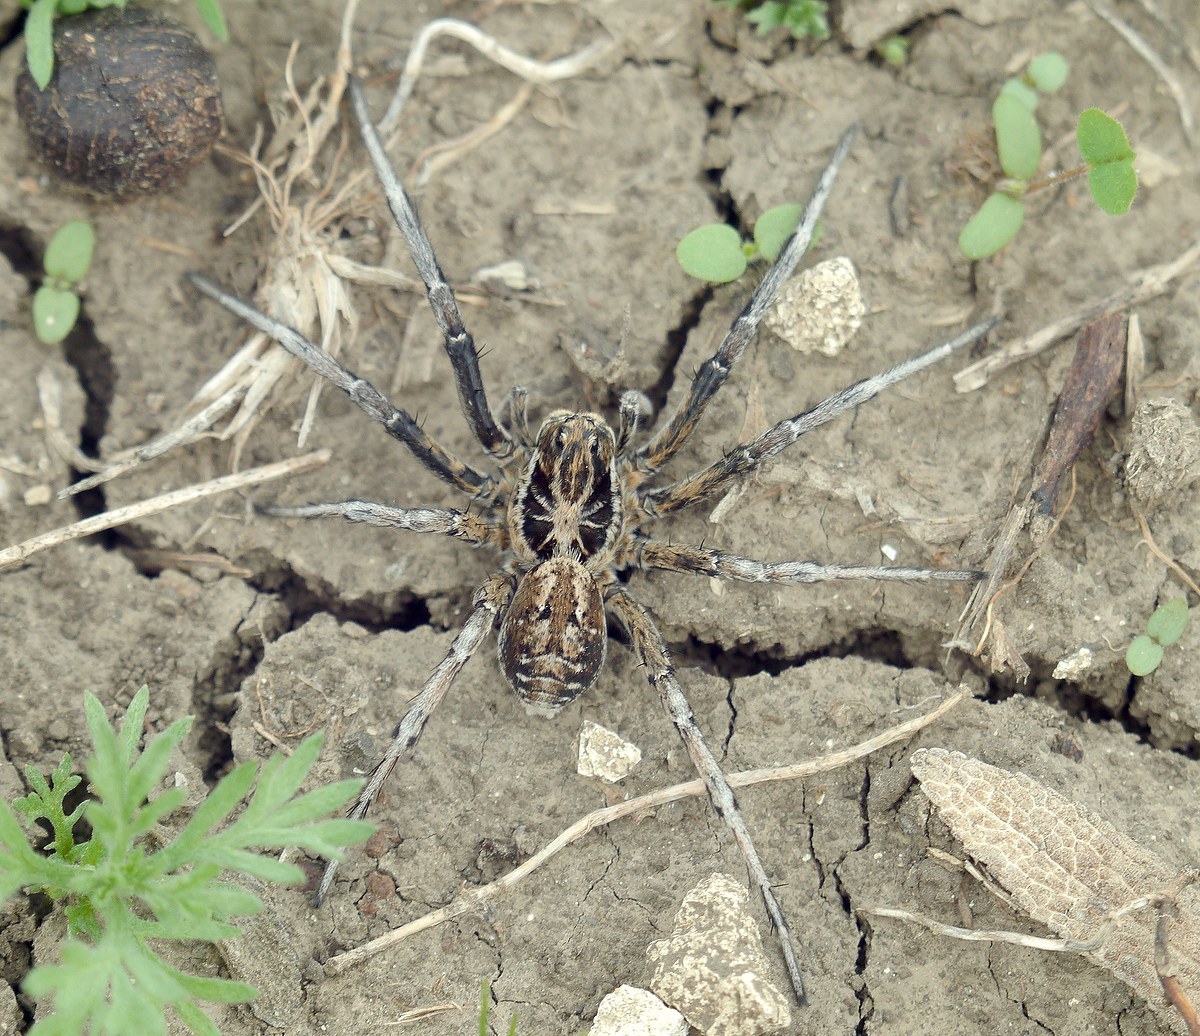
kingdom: Animalia
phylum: Arthropoda
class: Arachnida
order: Araneae
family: Lycosidae
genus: Geolycosa
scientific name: Geolycosa vultuosa
